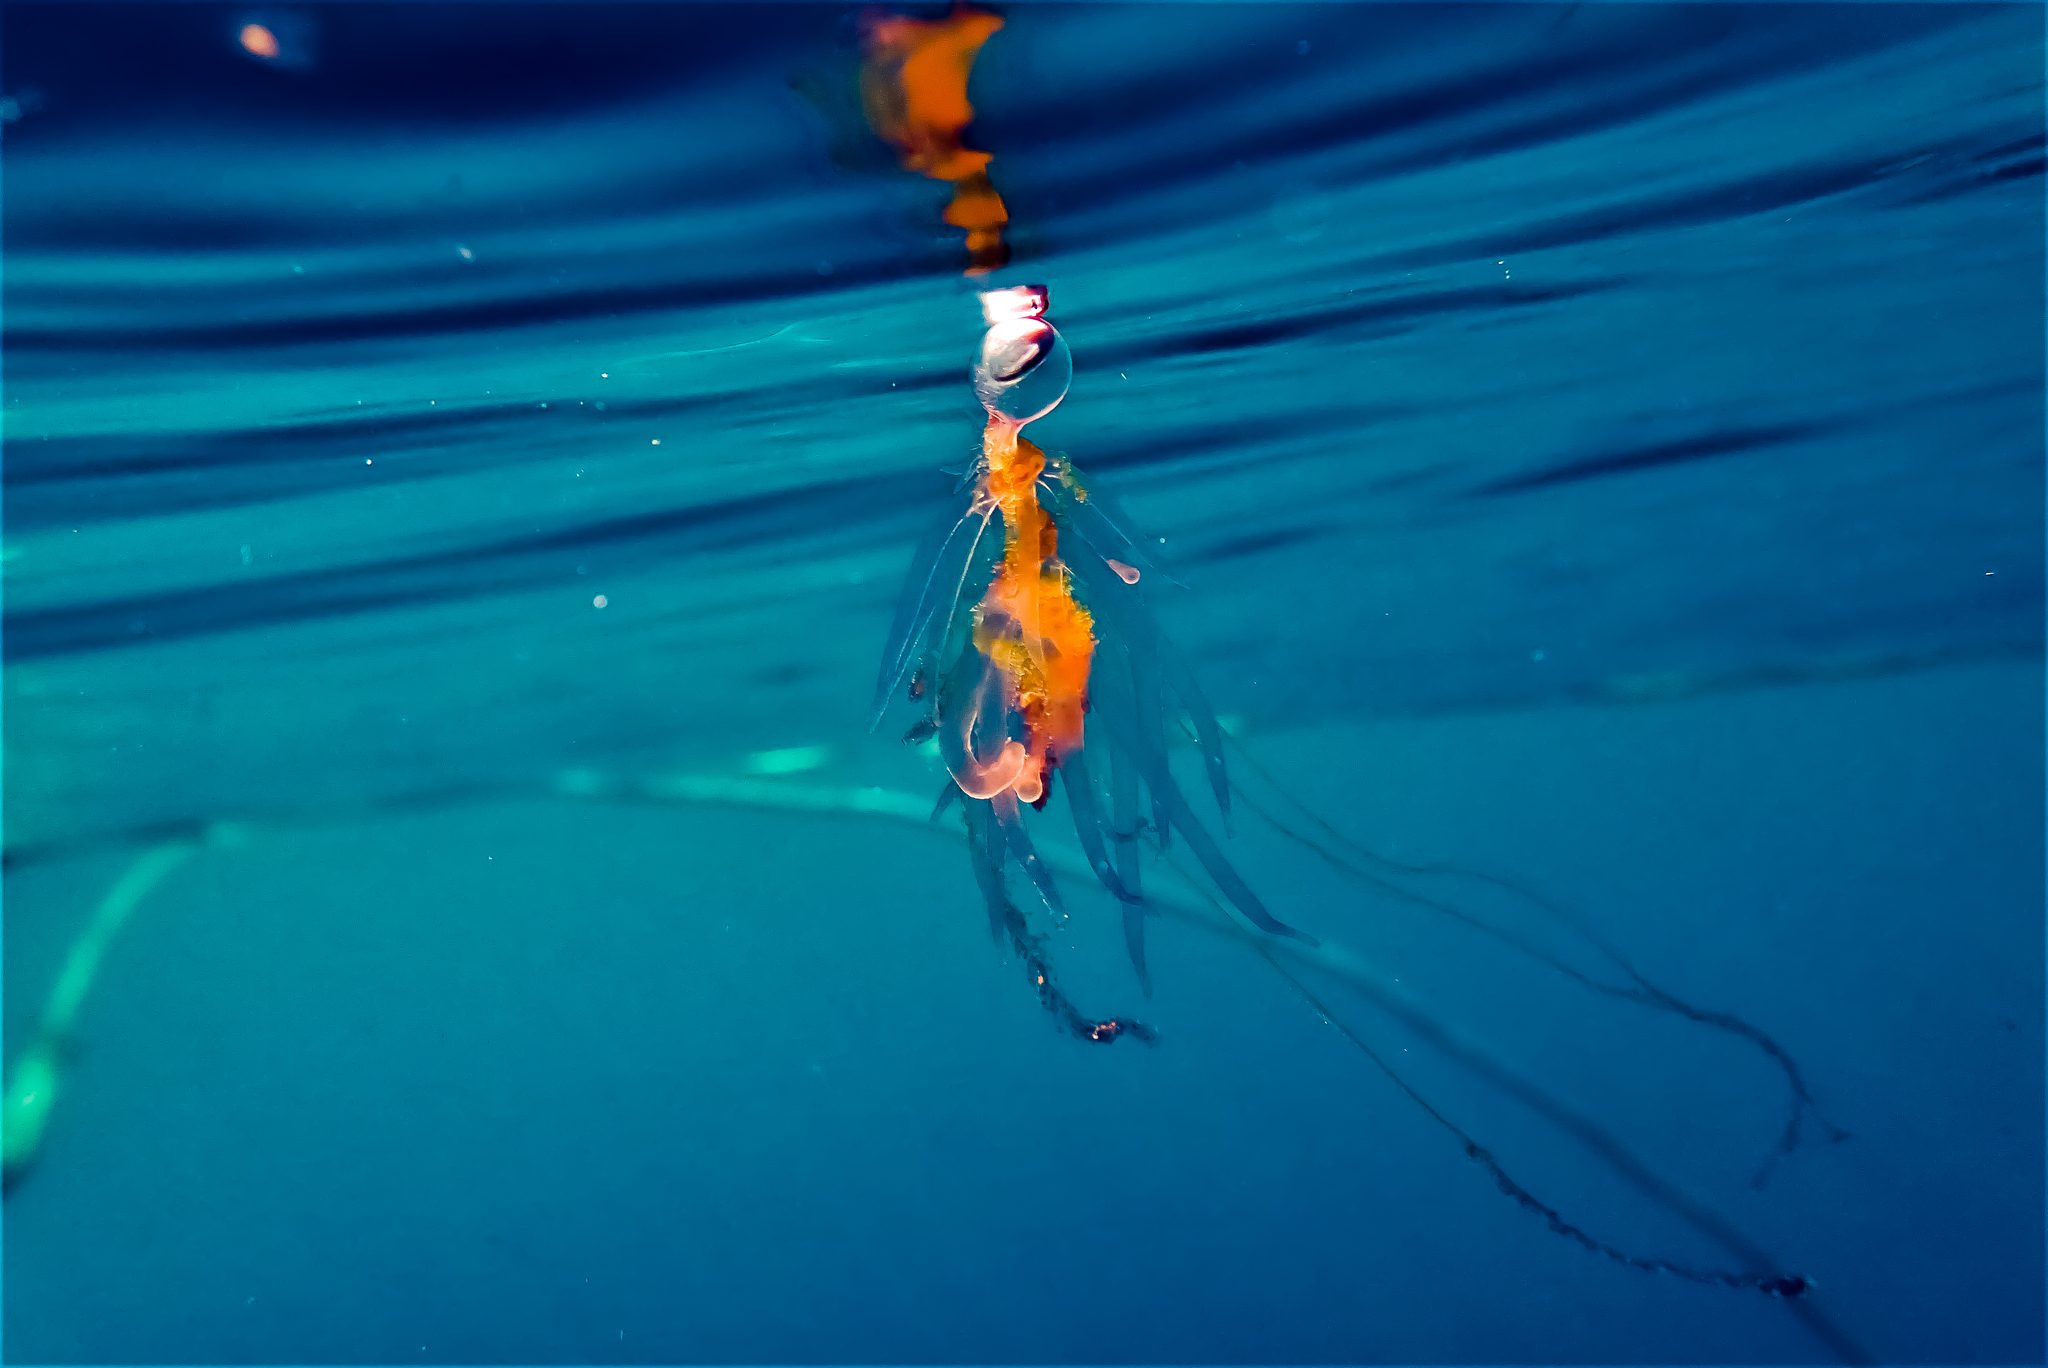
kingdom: Animalia
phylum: Cnidaria
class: Hydrozoa
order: Siphonophorae
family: Rhizophysidae
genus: Rhizophysa
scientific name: Rhizophysa filiformis
